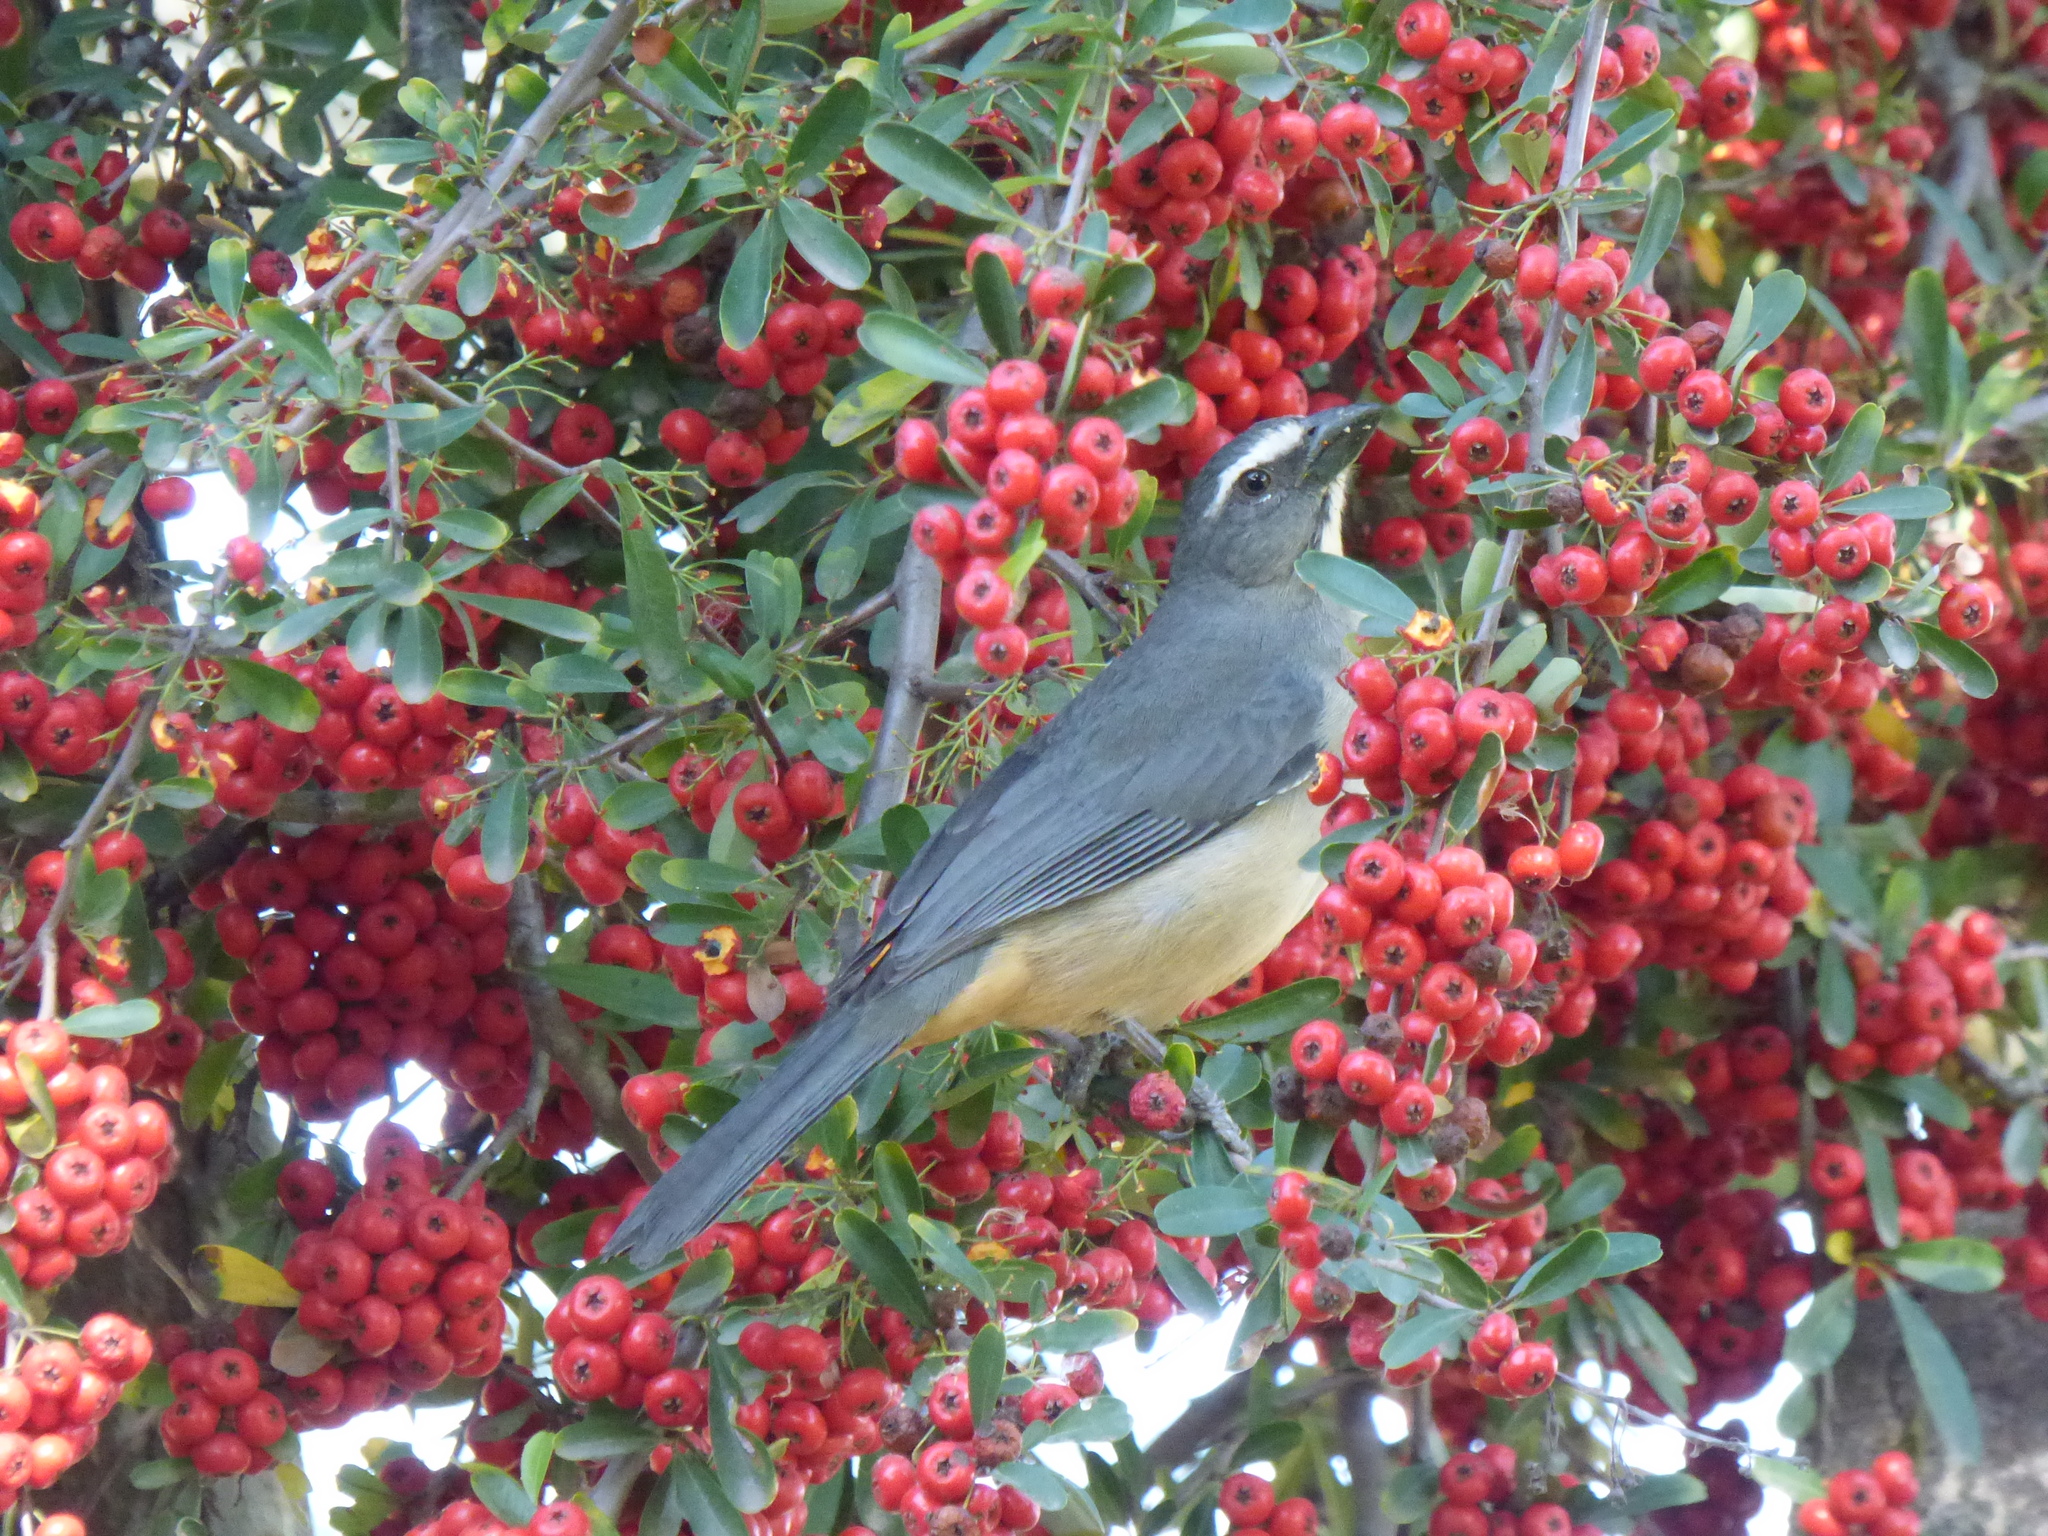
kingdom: Animalia
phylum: Chordata
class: Aves
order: Passeriformes
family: Thraupidae
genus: Saltator
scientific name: Saltator coerulescens
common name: Grayish saltator
